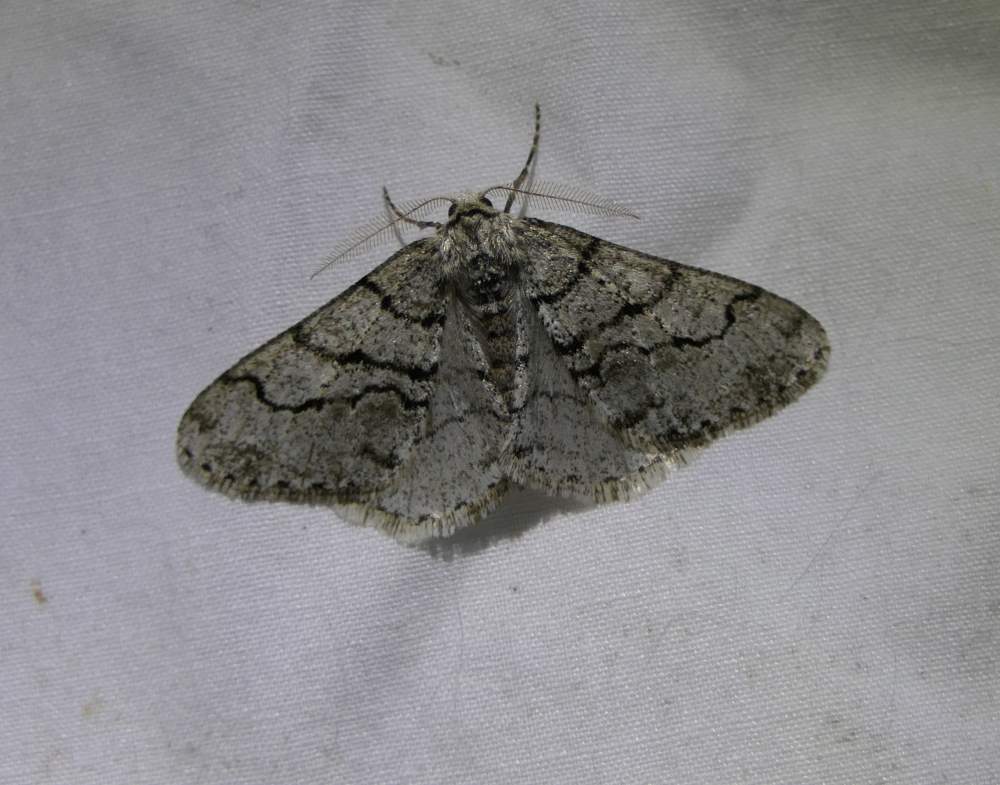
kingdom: Animalia
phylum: Arthropoda
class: Insecta
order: Lepidoptera
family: Geometridae
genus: Phigalia
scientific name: Phigalia titea
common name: Spiny looper
